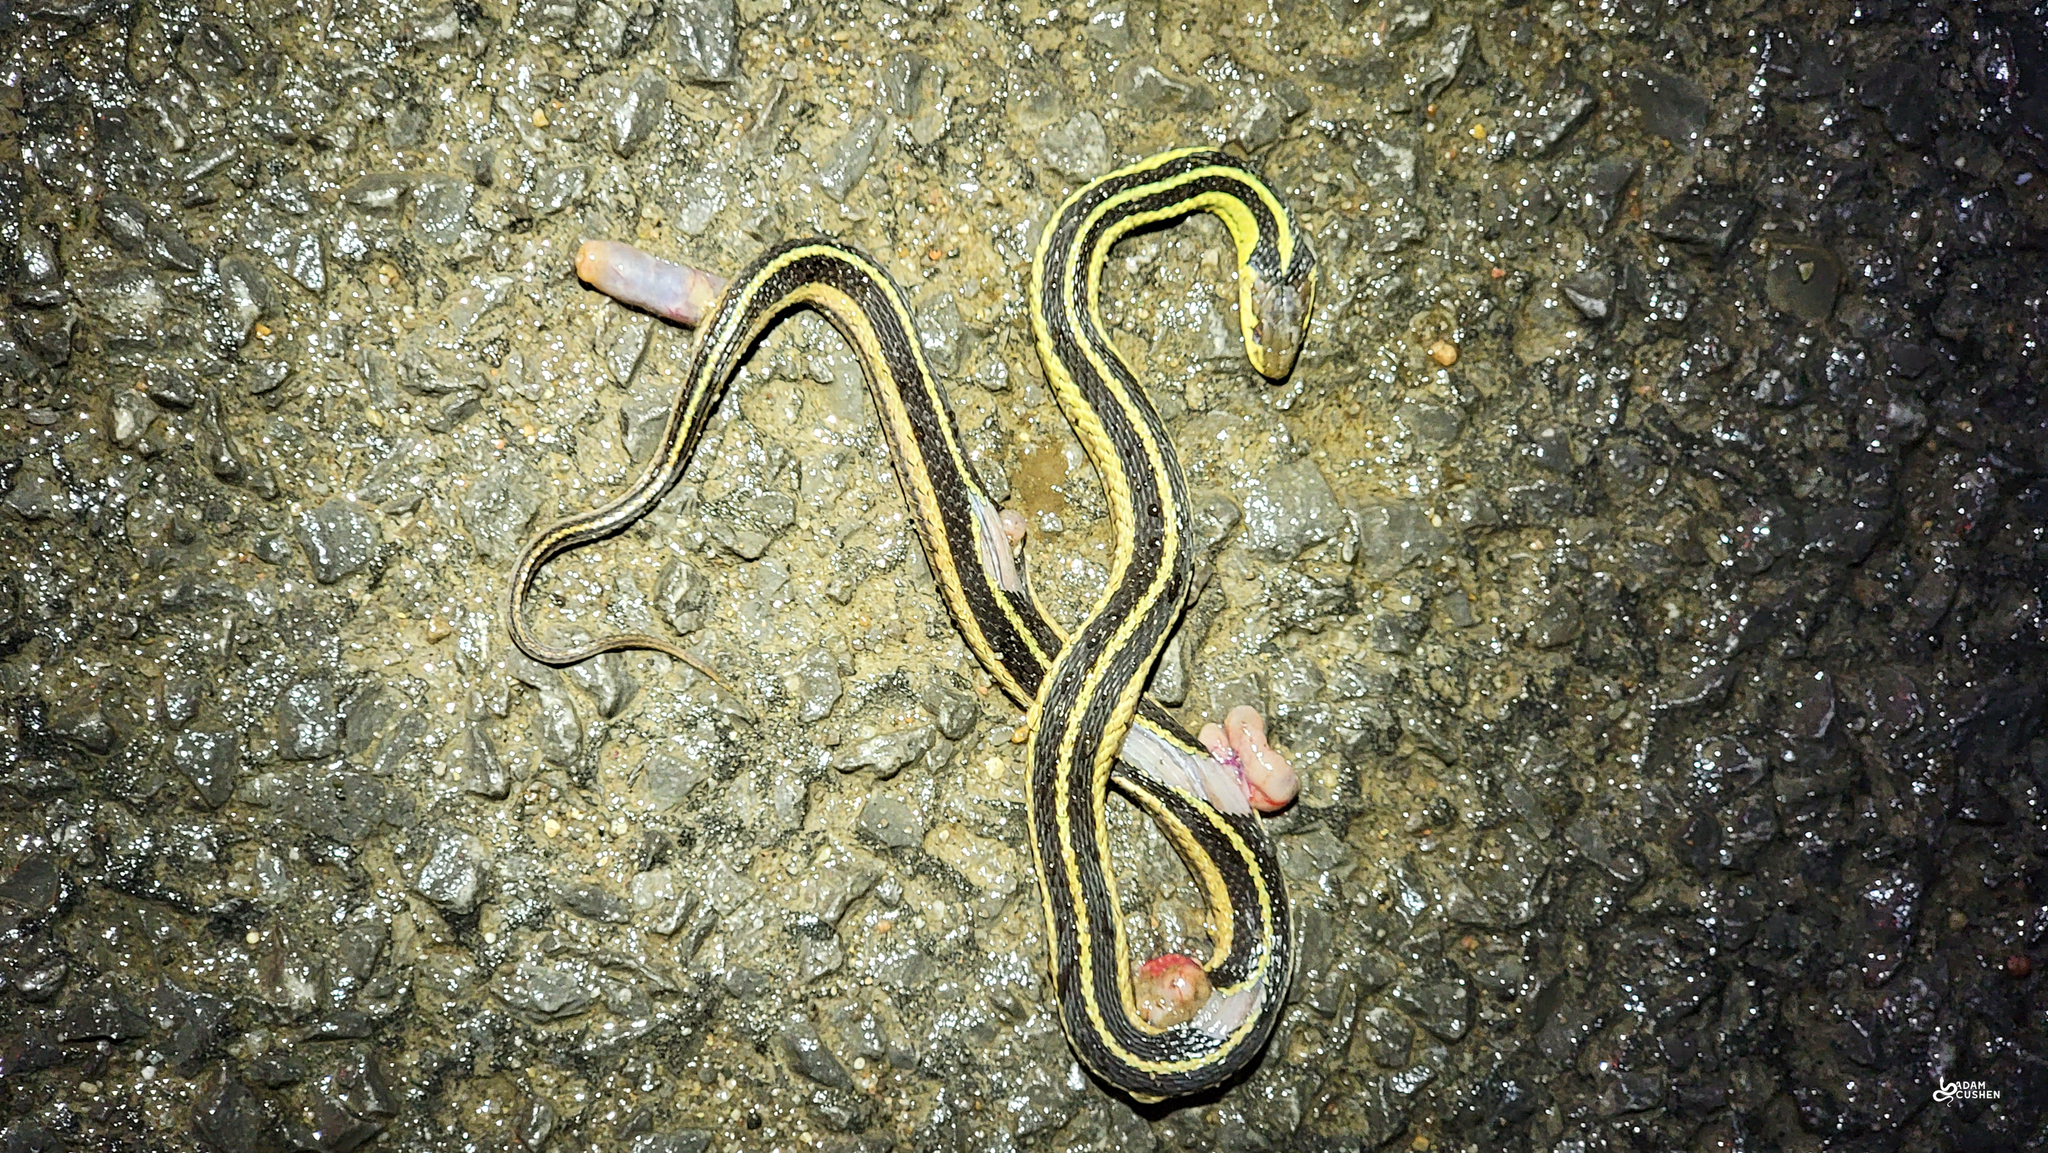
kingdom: Animalia
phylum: Chordata
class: Squamata
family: Colubridae
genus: Thamnophis
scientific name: Thamnophis sirtalis
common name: Common garter snake
